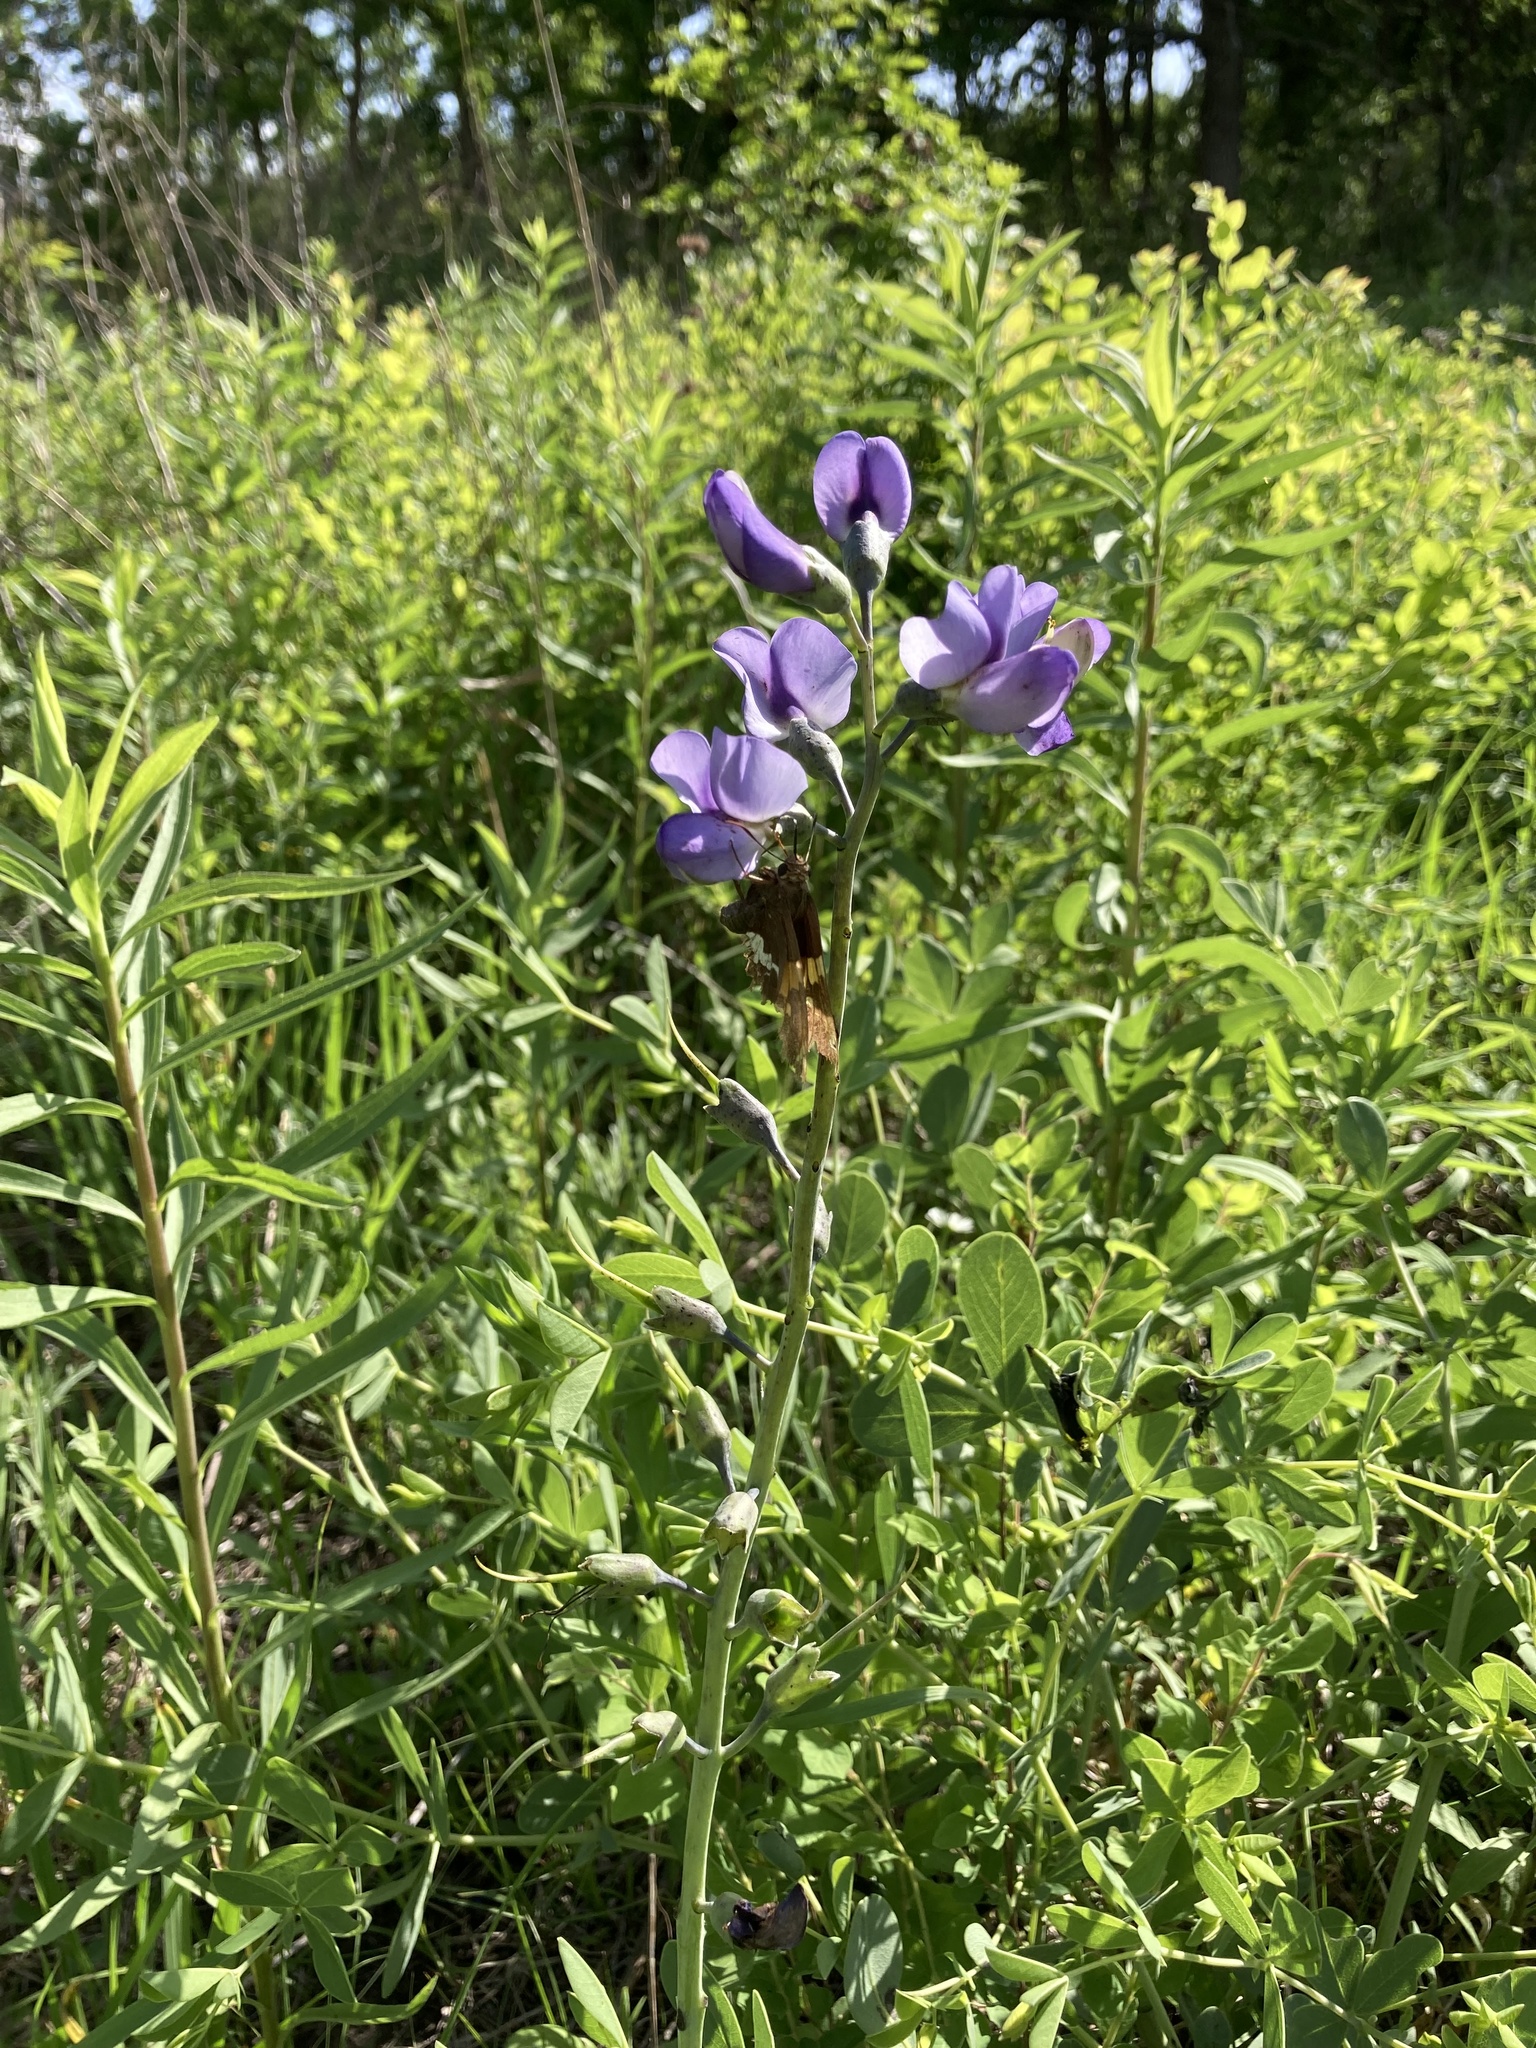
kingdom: Plantae
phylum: Tracheophyta
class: Magnoliopsida
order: Fabales
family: Fabaceae
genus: Baptisia
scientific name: Baptisia australis
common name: Blue false indigo
